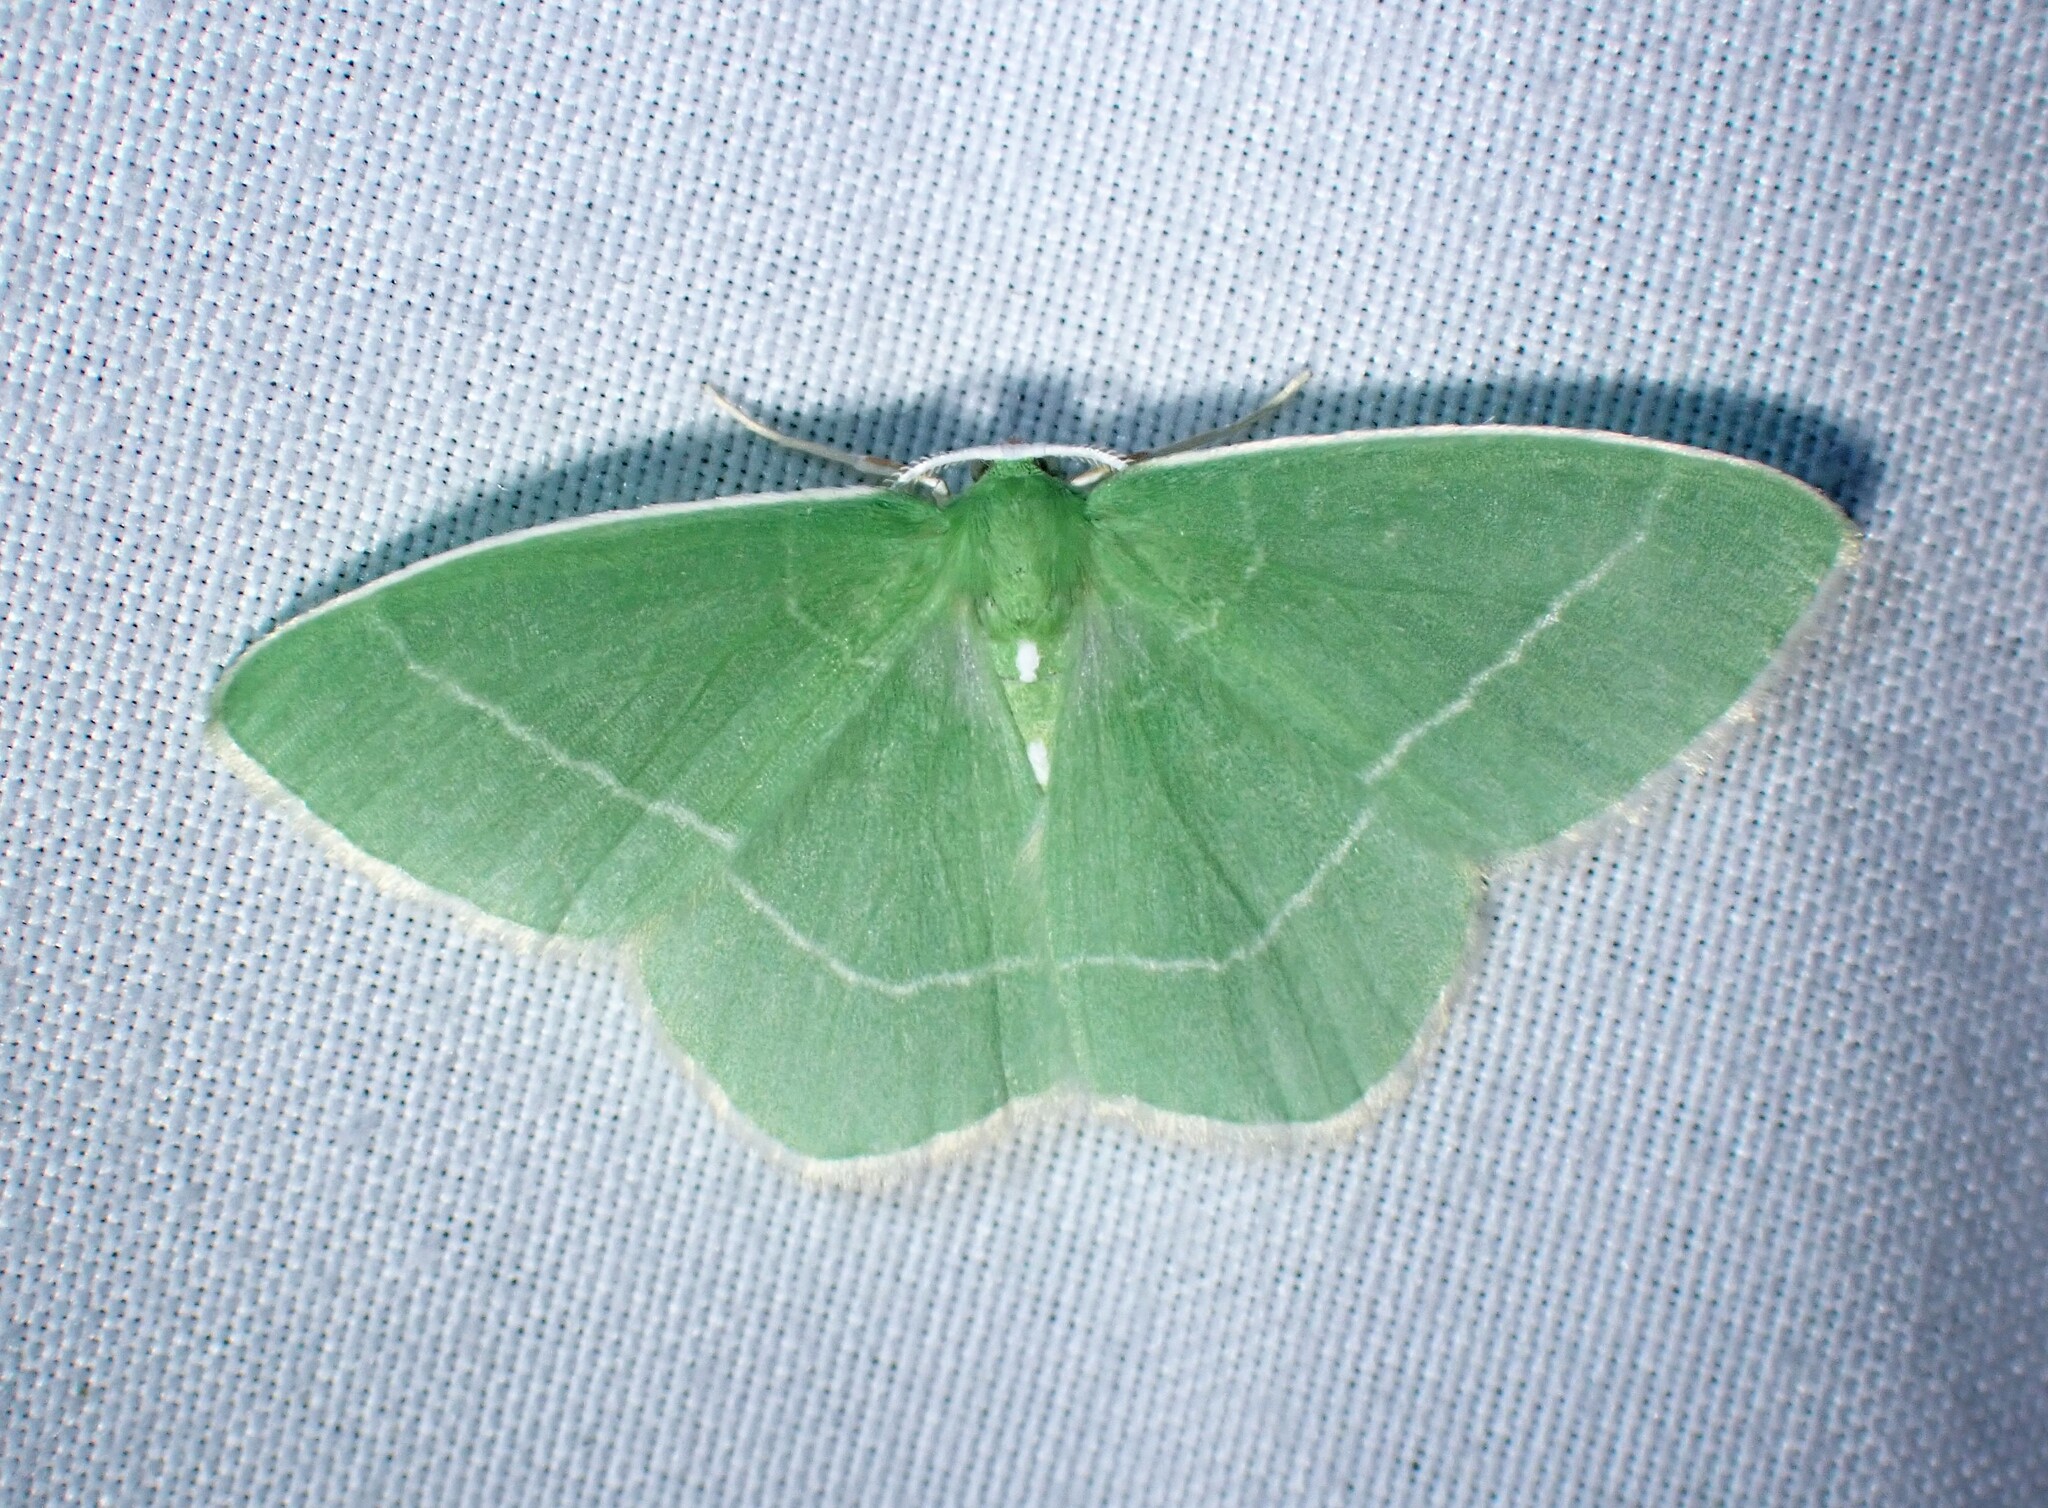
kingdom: Animalia
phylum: Arthropoda
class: Insecta
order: Lepidoptera
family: Geometridae
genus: Nemoria
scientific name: Nemoria mimosaria
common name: White-fringed emerald
